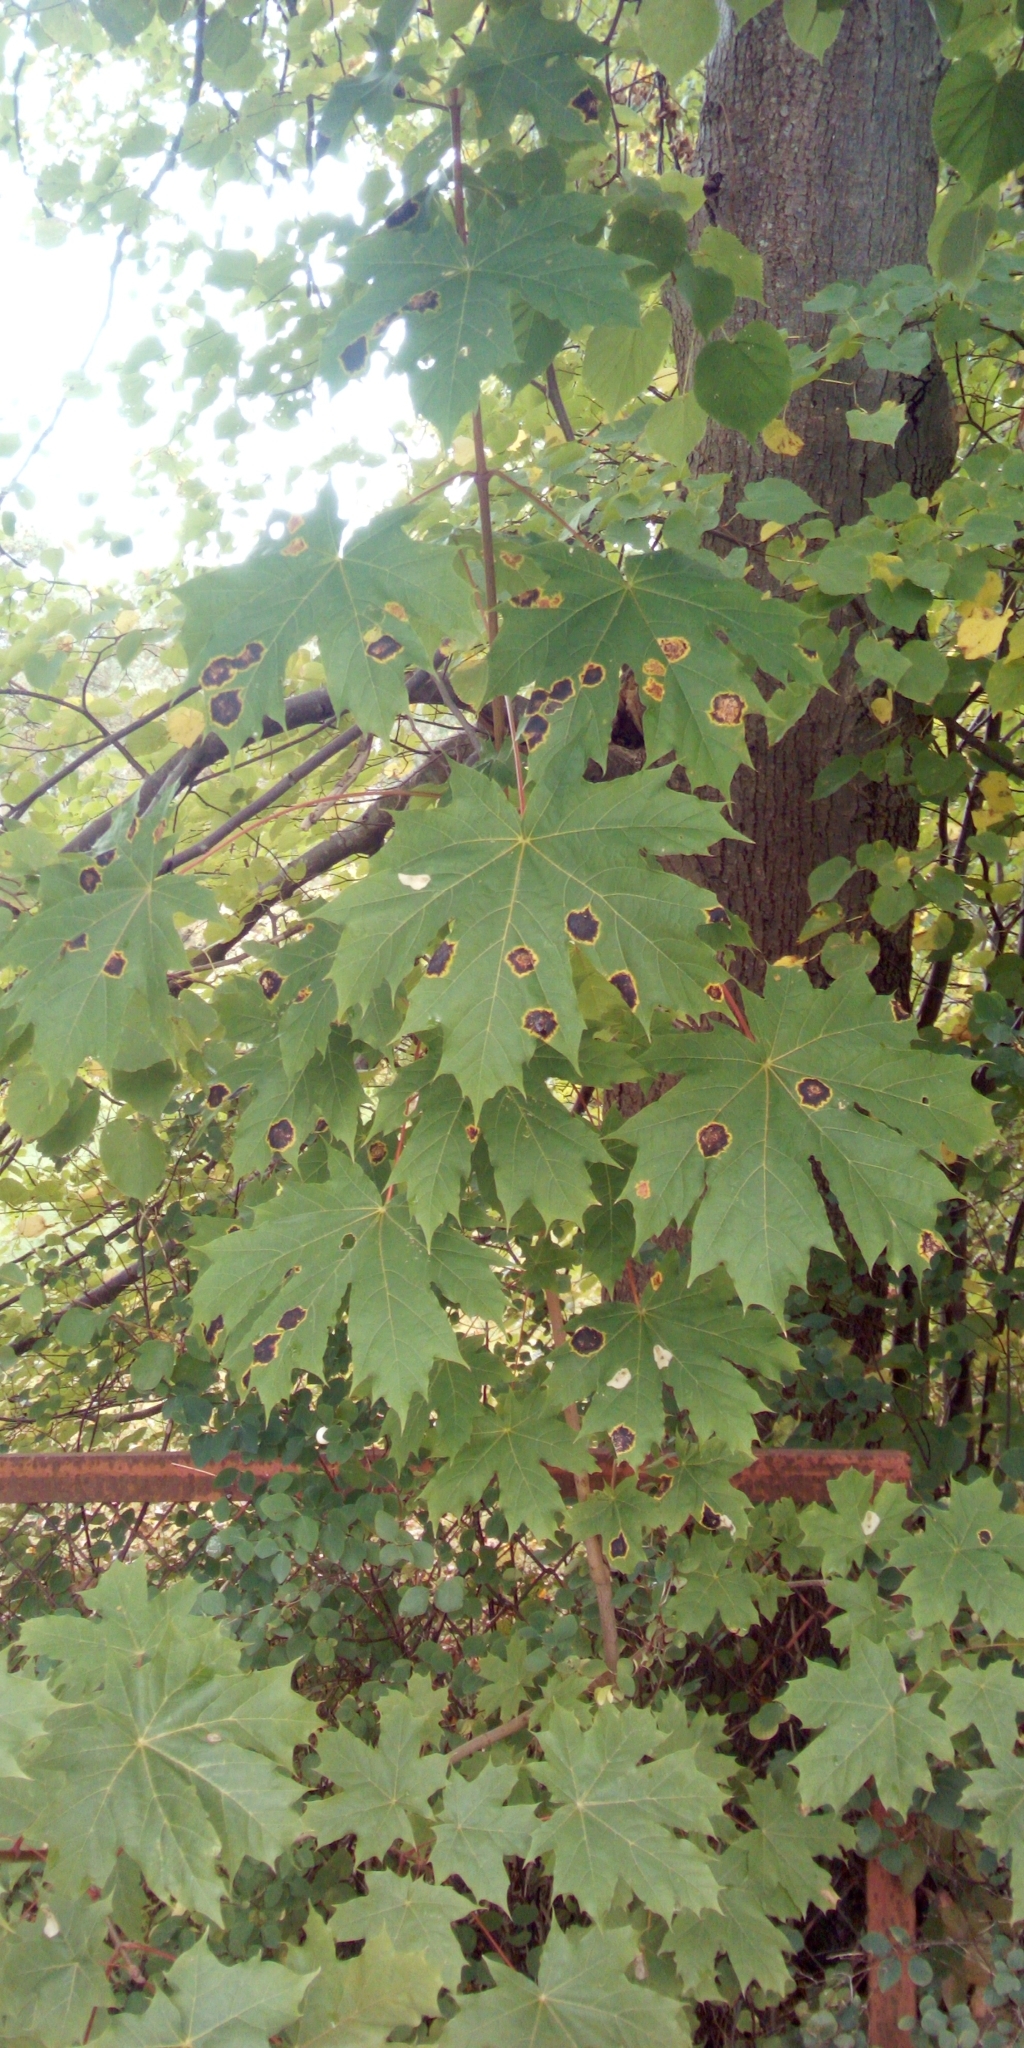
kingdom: Plantae
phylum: Tracheophyta
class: Magnoliopsida
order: Sapindales
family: Sapindaceae
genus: Acer
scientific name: Acer platanoides
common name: Norway maple
